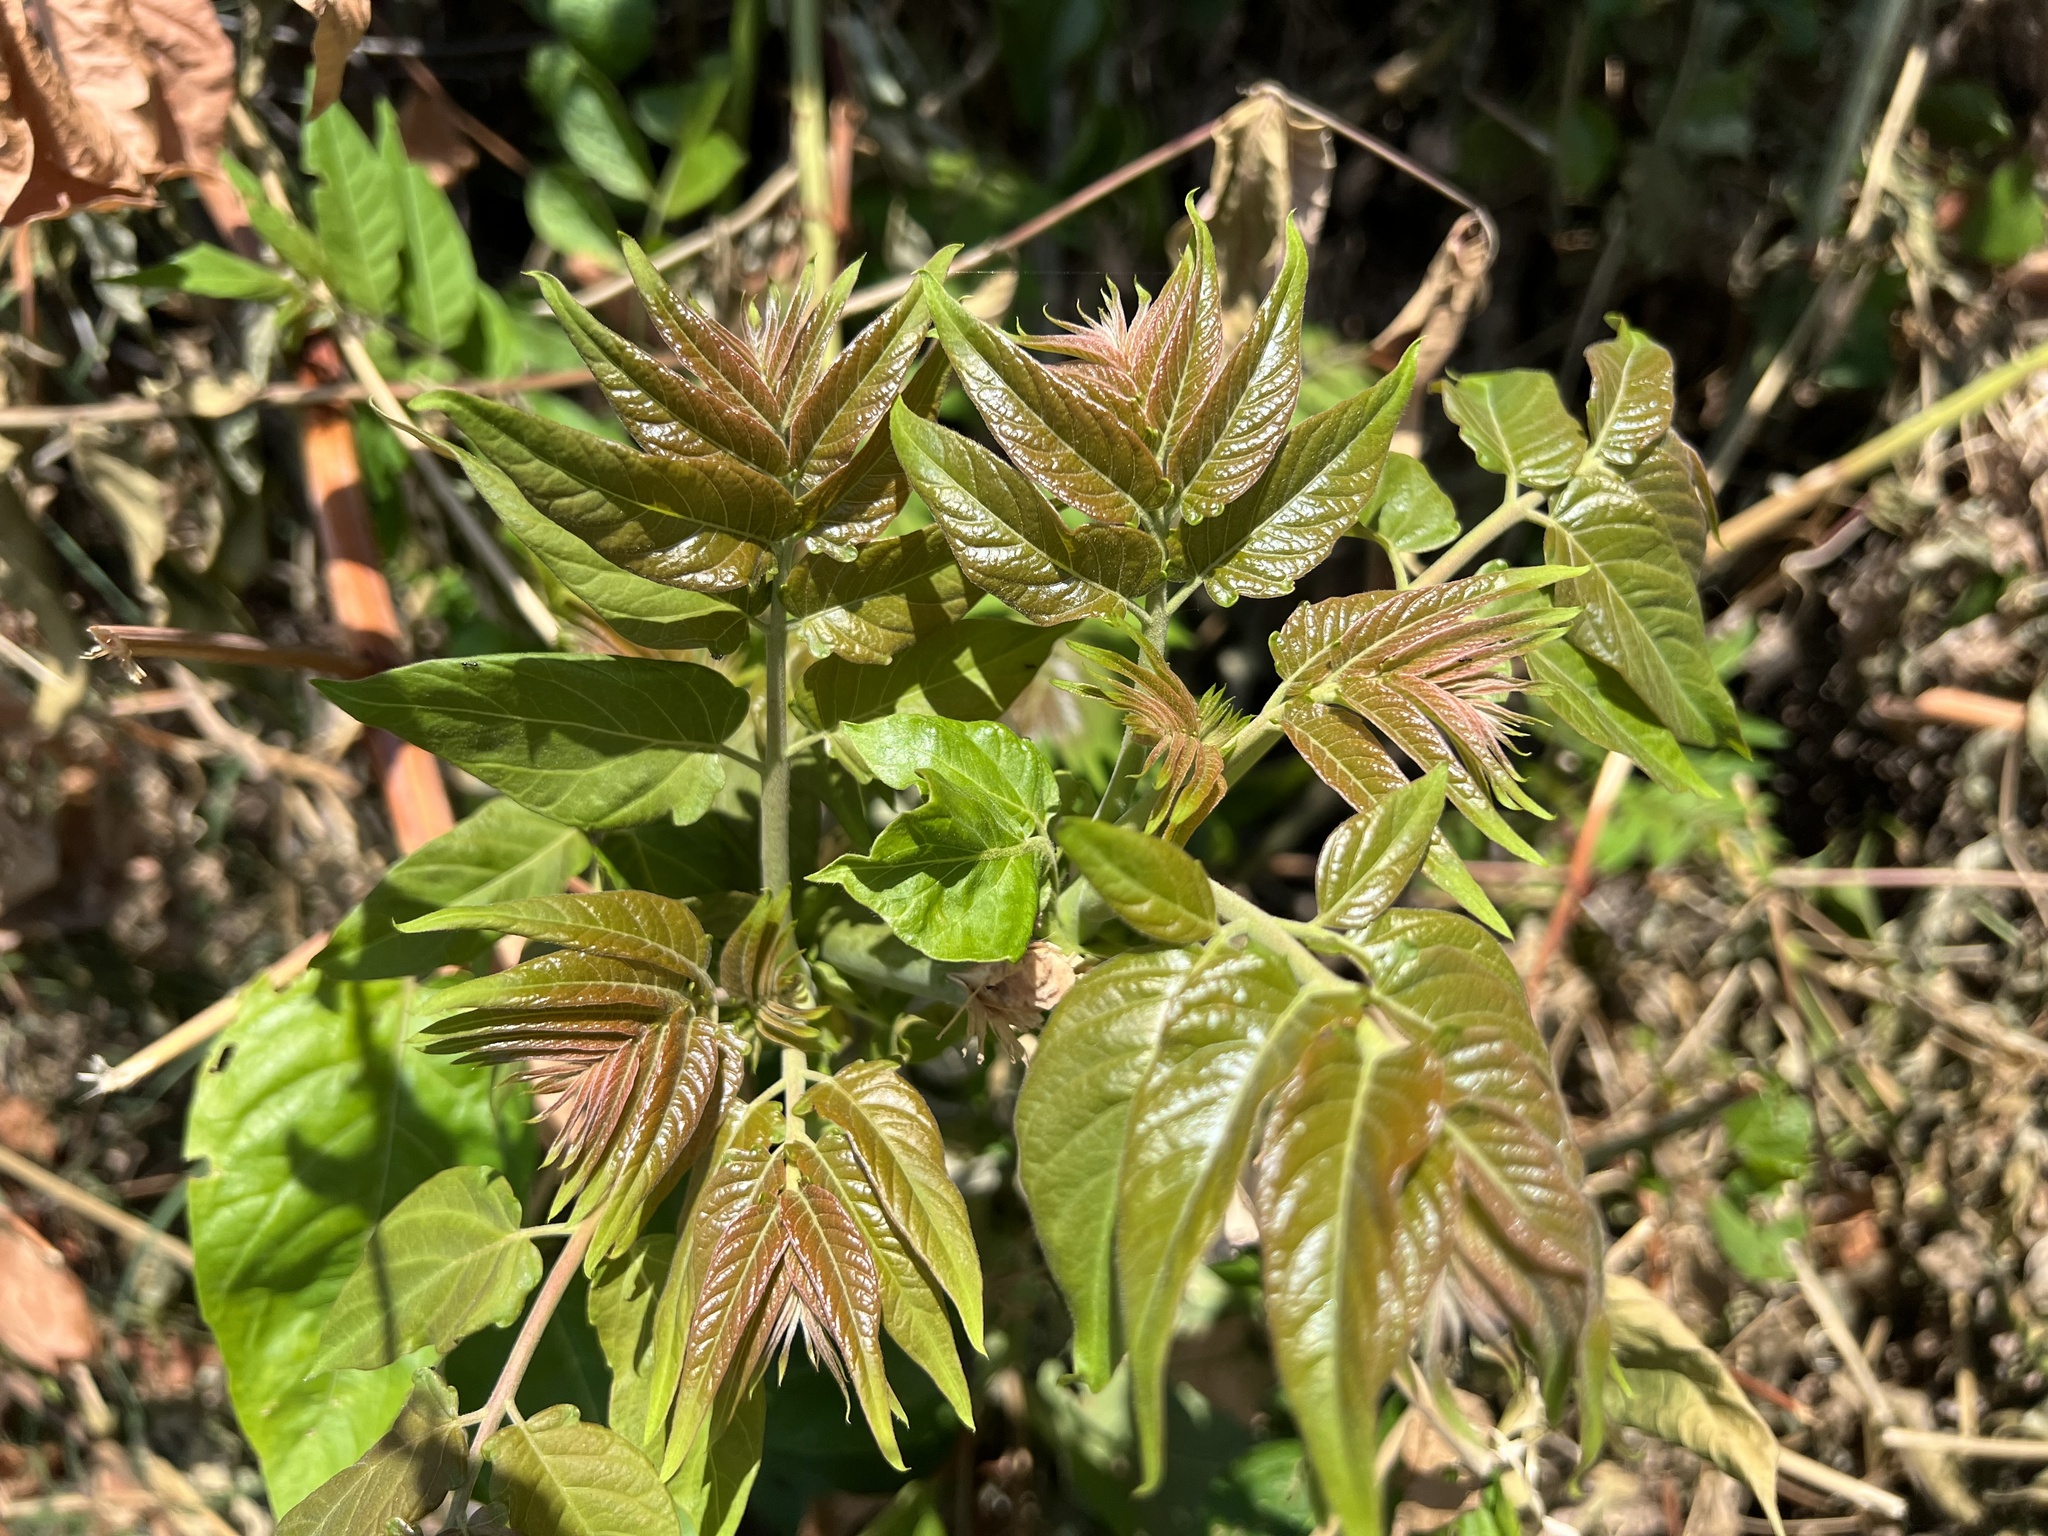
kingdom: Plantae
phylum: Tracheophyta
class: Magnoliopsida
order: Sapindales
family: Simaroubaceae
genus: Ailanthus
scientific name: Ailanthus altissima
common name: Tree-of-heaven
